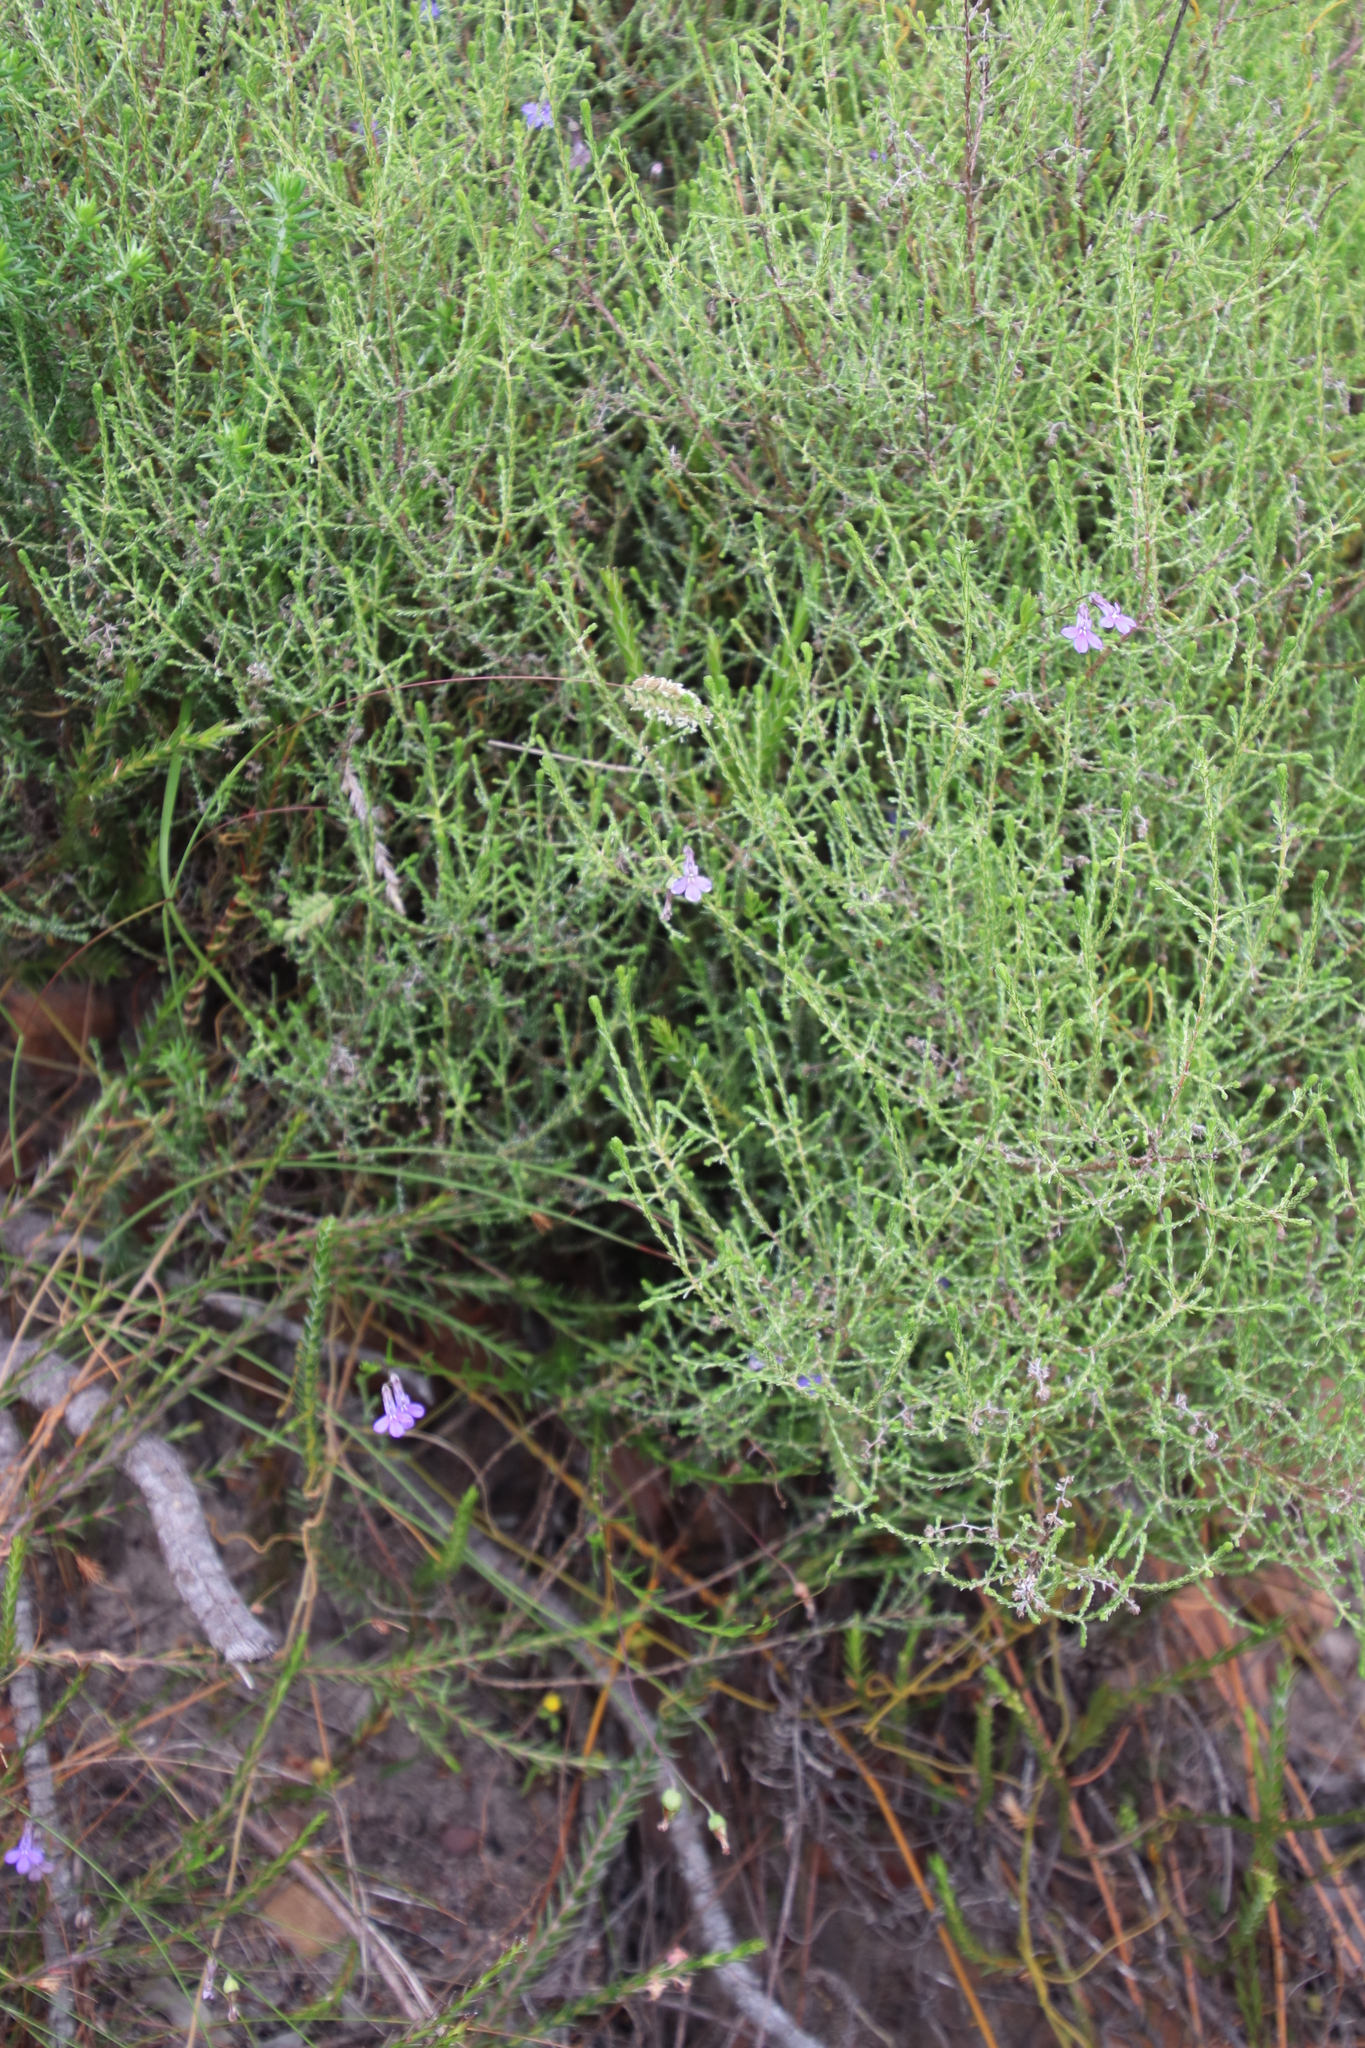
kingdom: Plantae
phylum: Tracheophyta
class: Magnoliopsida
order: Asterales
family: Campanulaceae
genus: Lobelia
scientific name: Lobelia pinifolia
